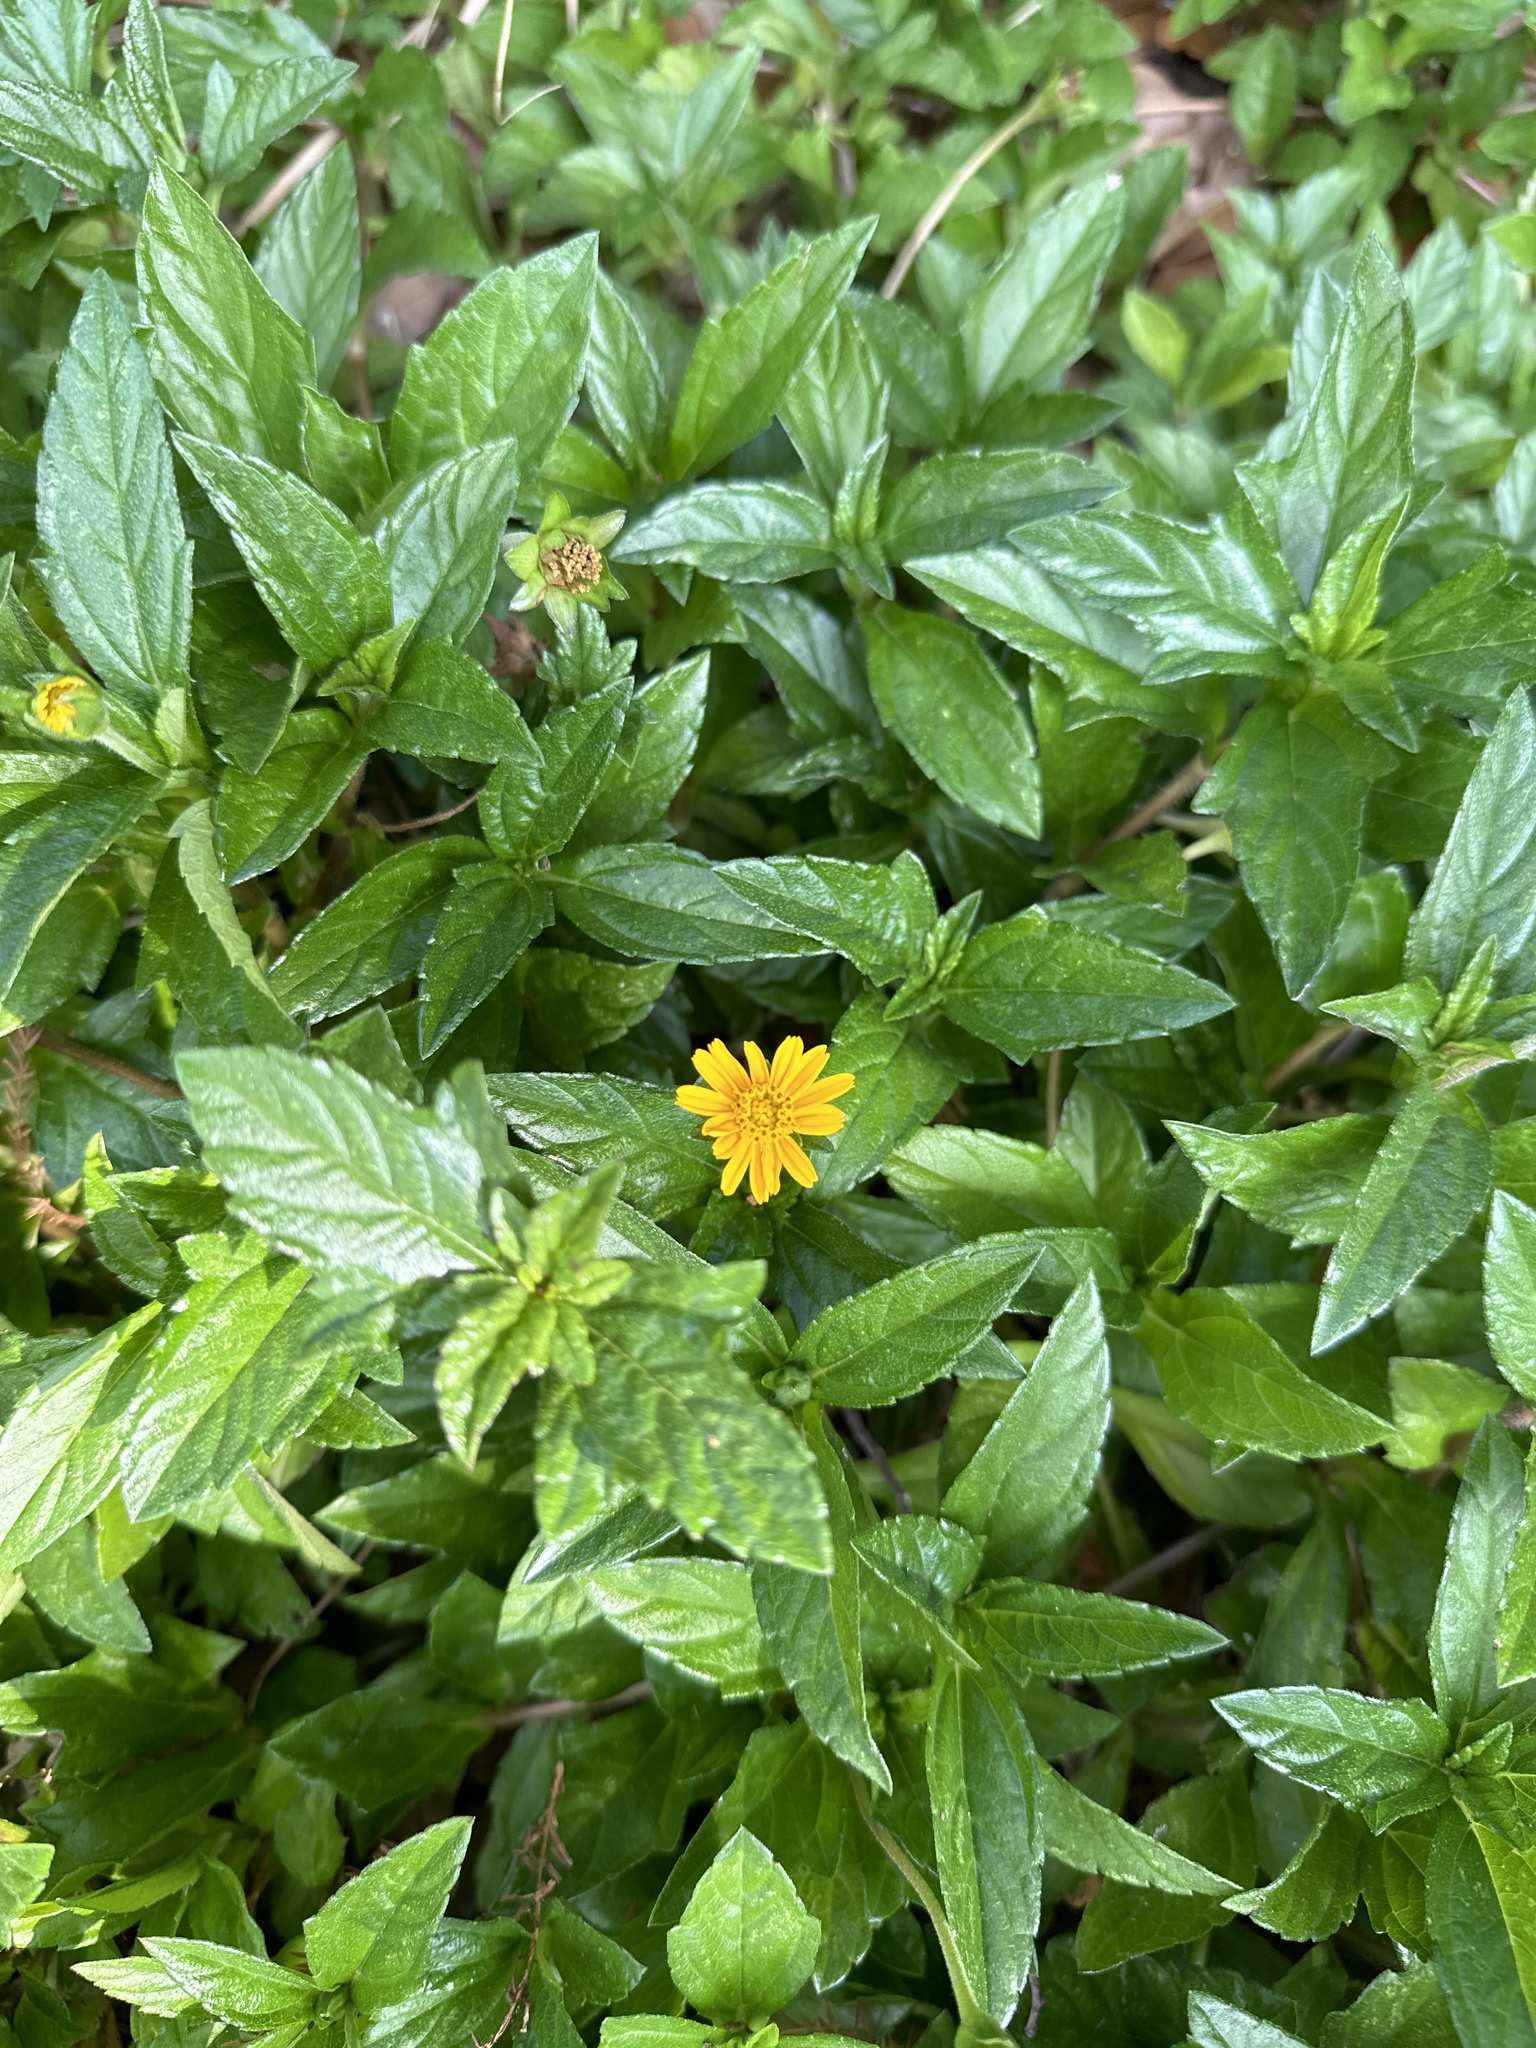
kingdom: Plantae
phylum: Tracheophyta
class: Magnoliopsida
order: Asterales
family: Asteraceae
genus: Sphagneticola
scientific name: Sphagneticola trilobata
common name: Bay biscayne creeping-oxeye
